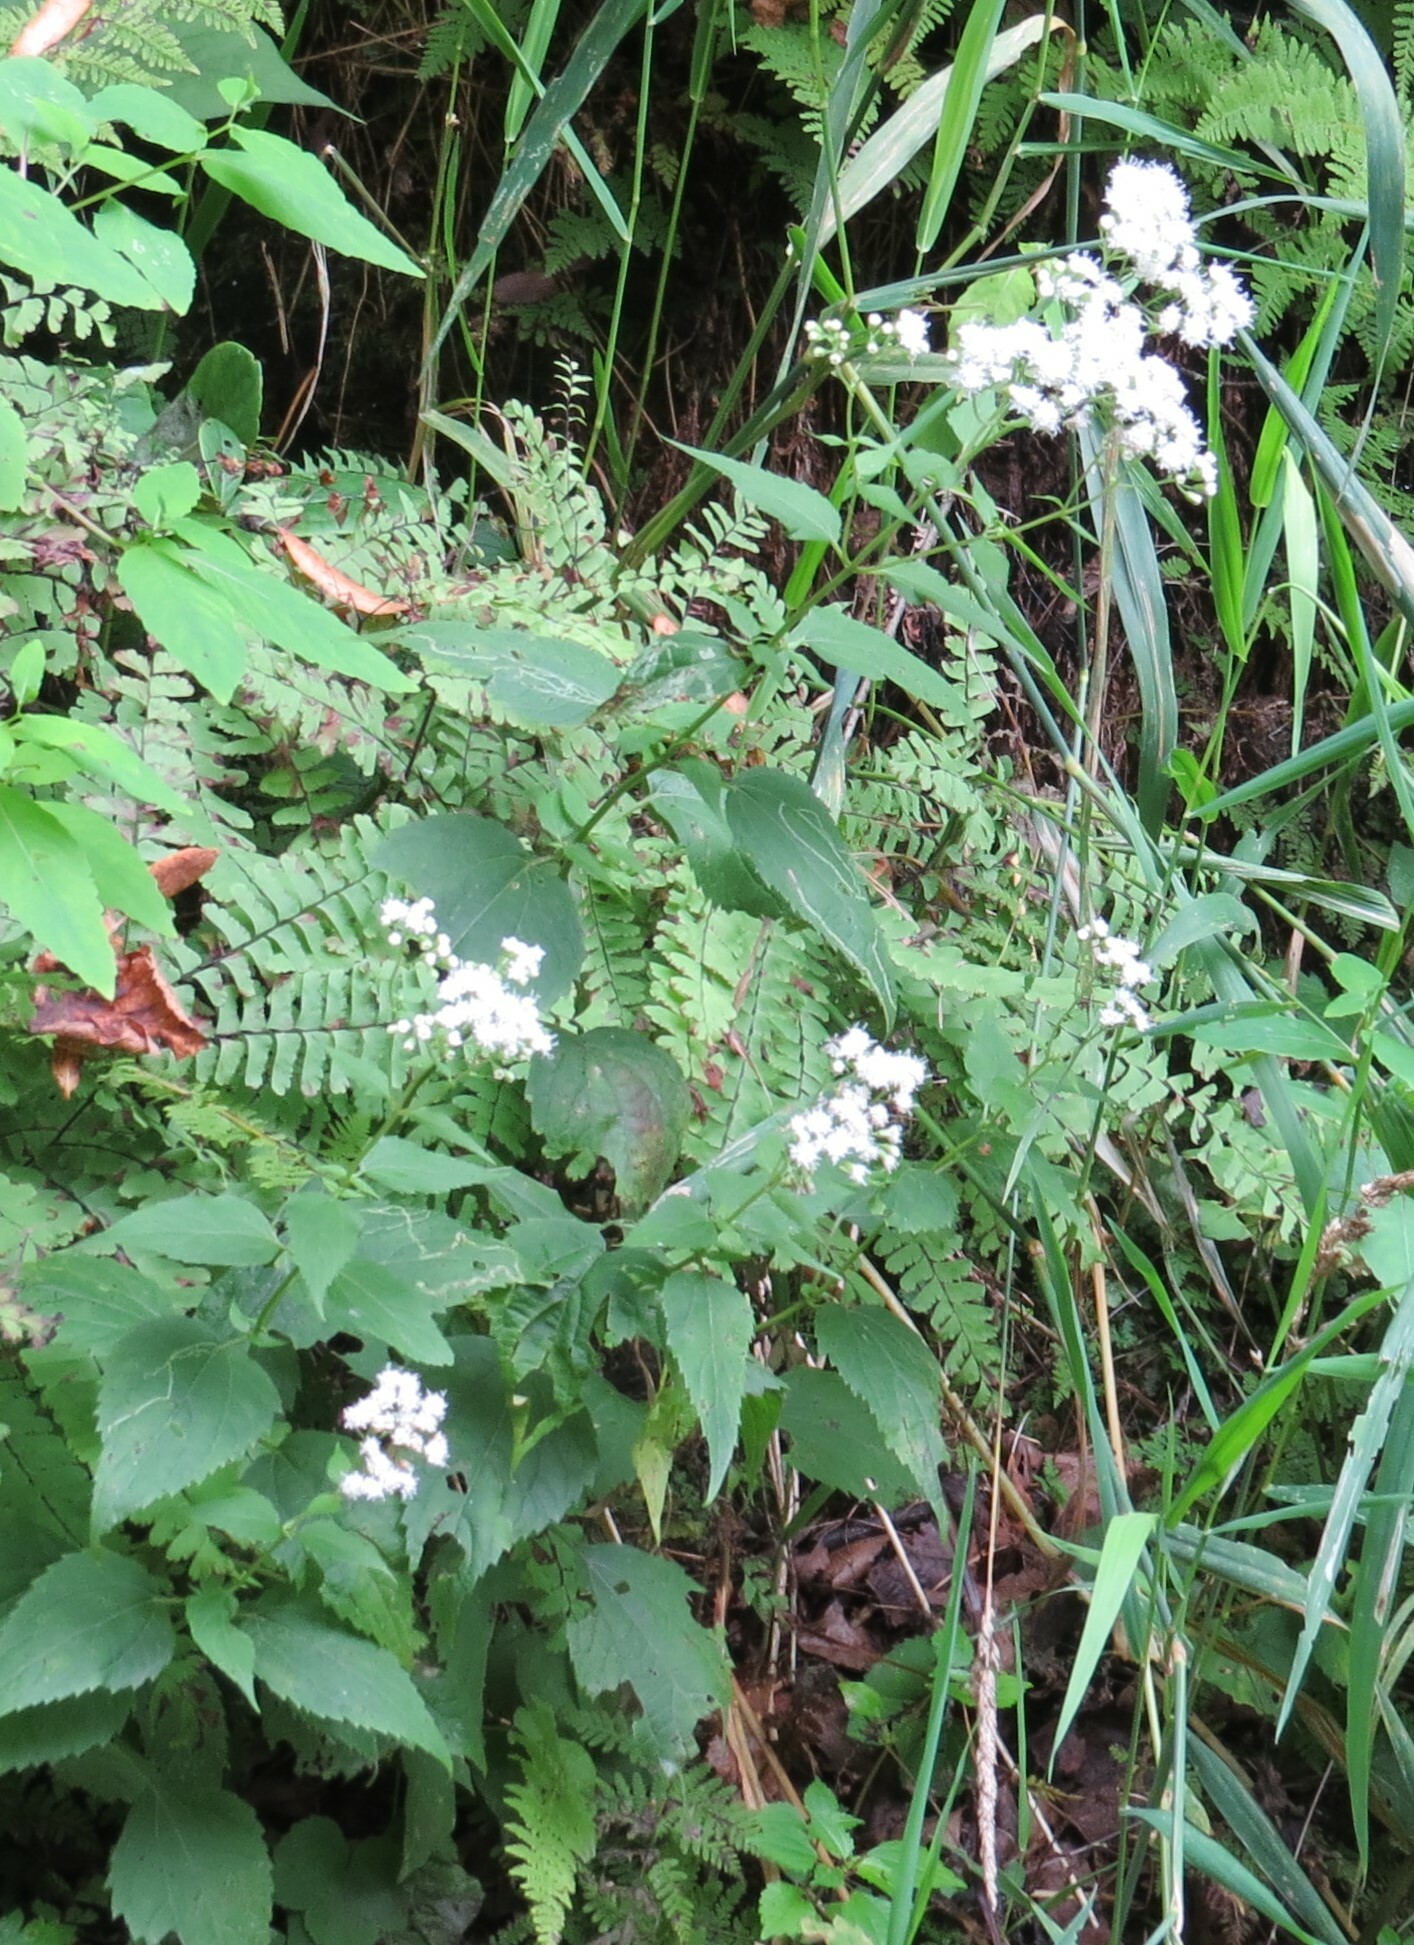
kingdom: Plantae
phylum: Tracheophyta
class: Magnoliopsida
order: Asterales
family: Asteraceae
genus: Ageratina
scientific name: Ageratina altissima
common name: White snakeroot
